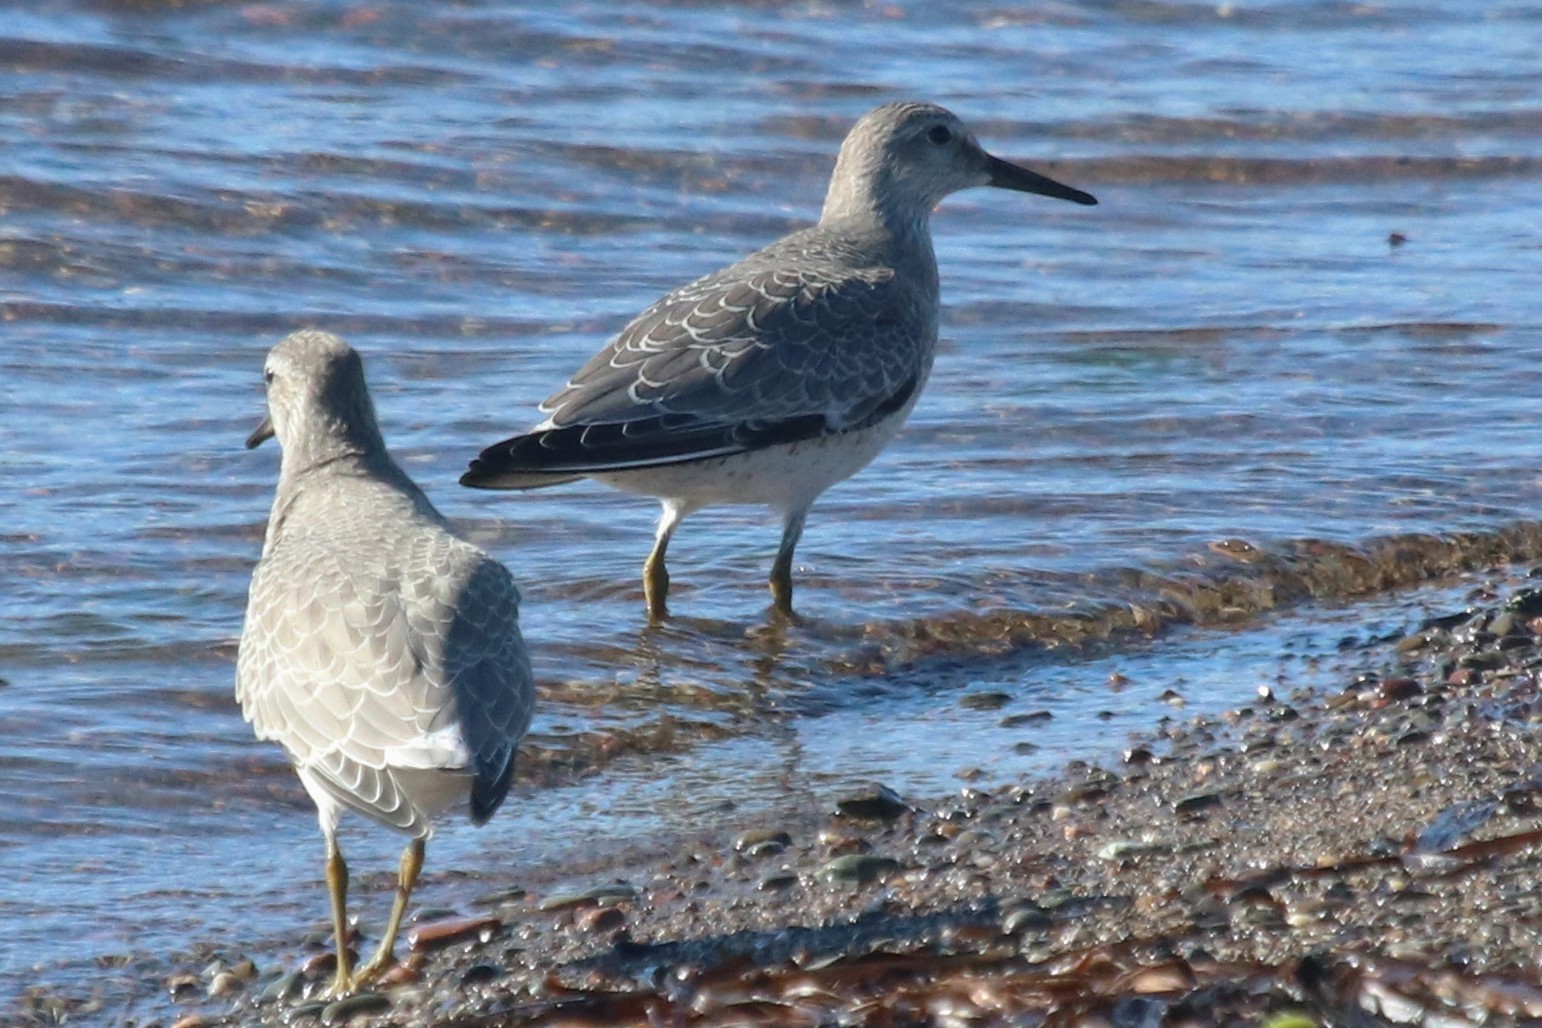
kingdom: Animalia
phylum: Chordata
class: Aves
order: Charadriiformes
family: Scolopacidae
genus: Calidris
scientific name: Calidris canutus
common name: Red knot
